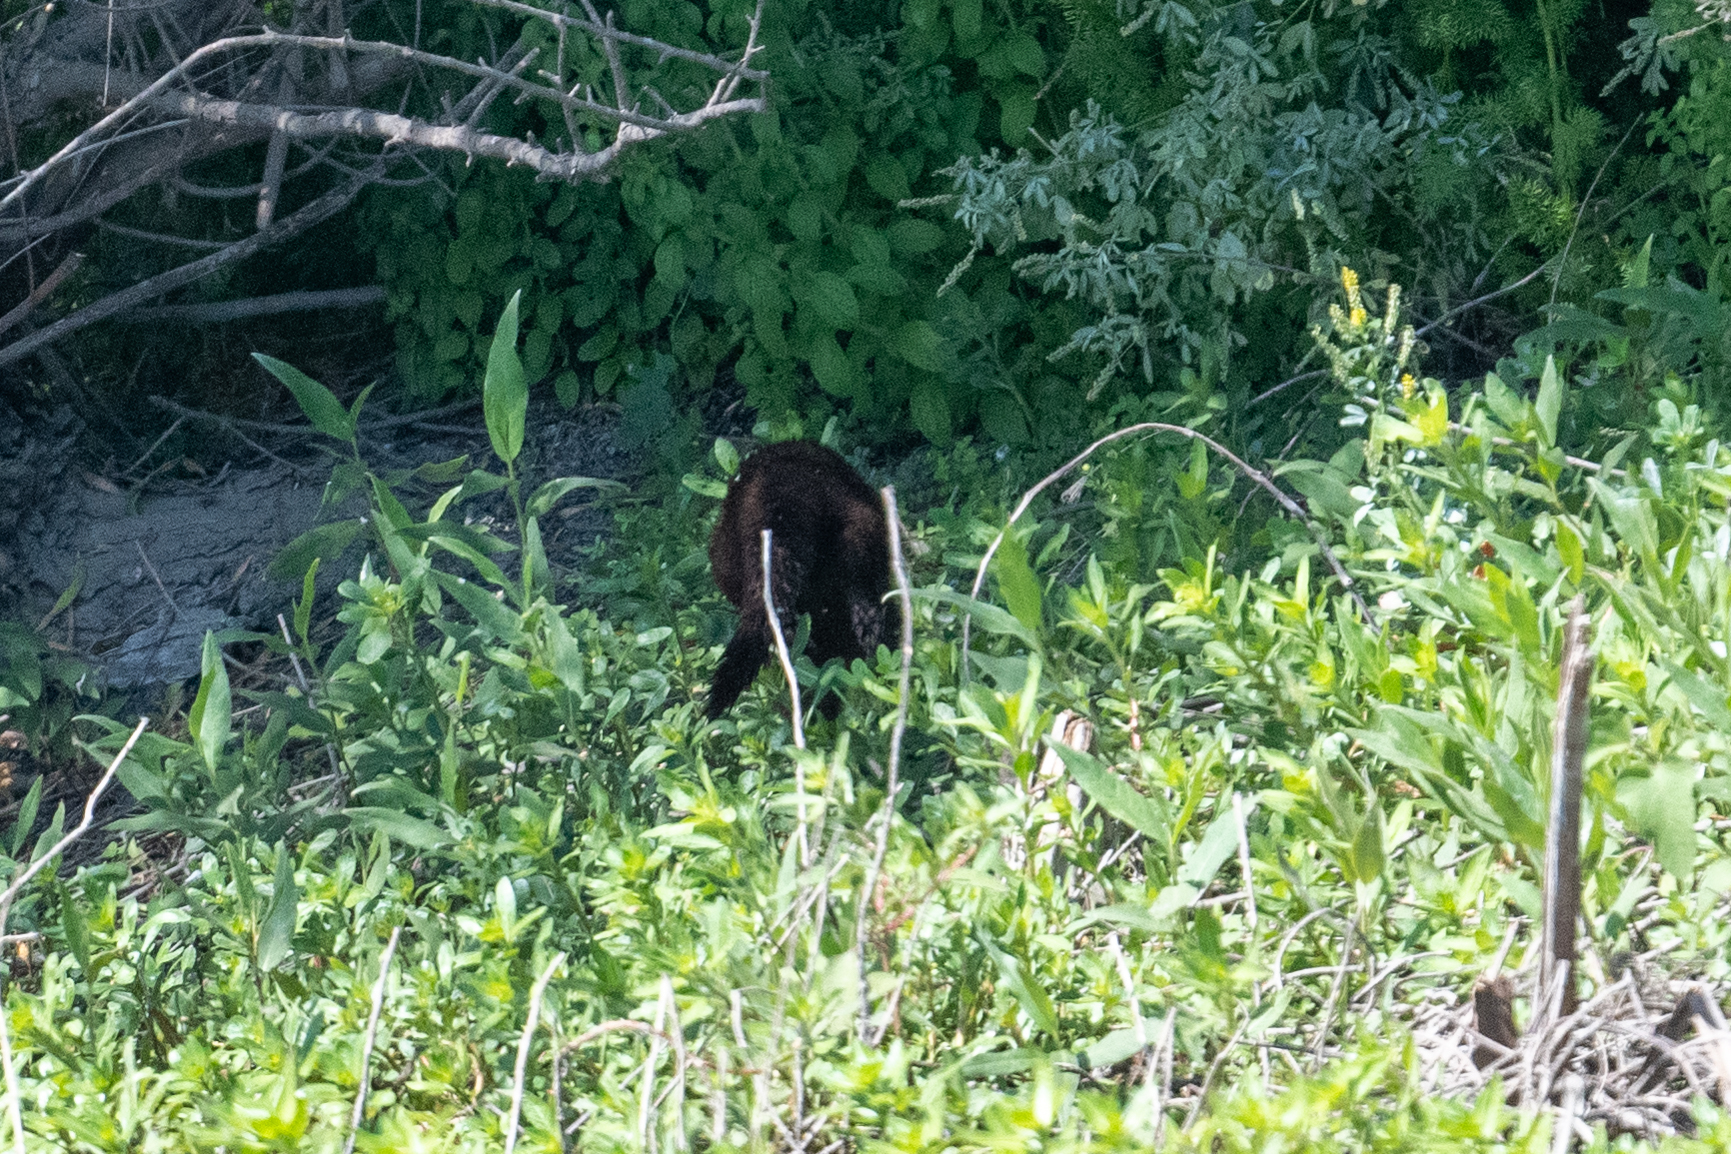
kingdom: Animalia
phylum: Chordata
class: Mammalia
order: Carnivora
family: Mustelidae
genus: Mustela
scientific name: Mustela
